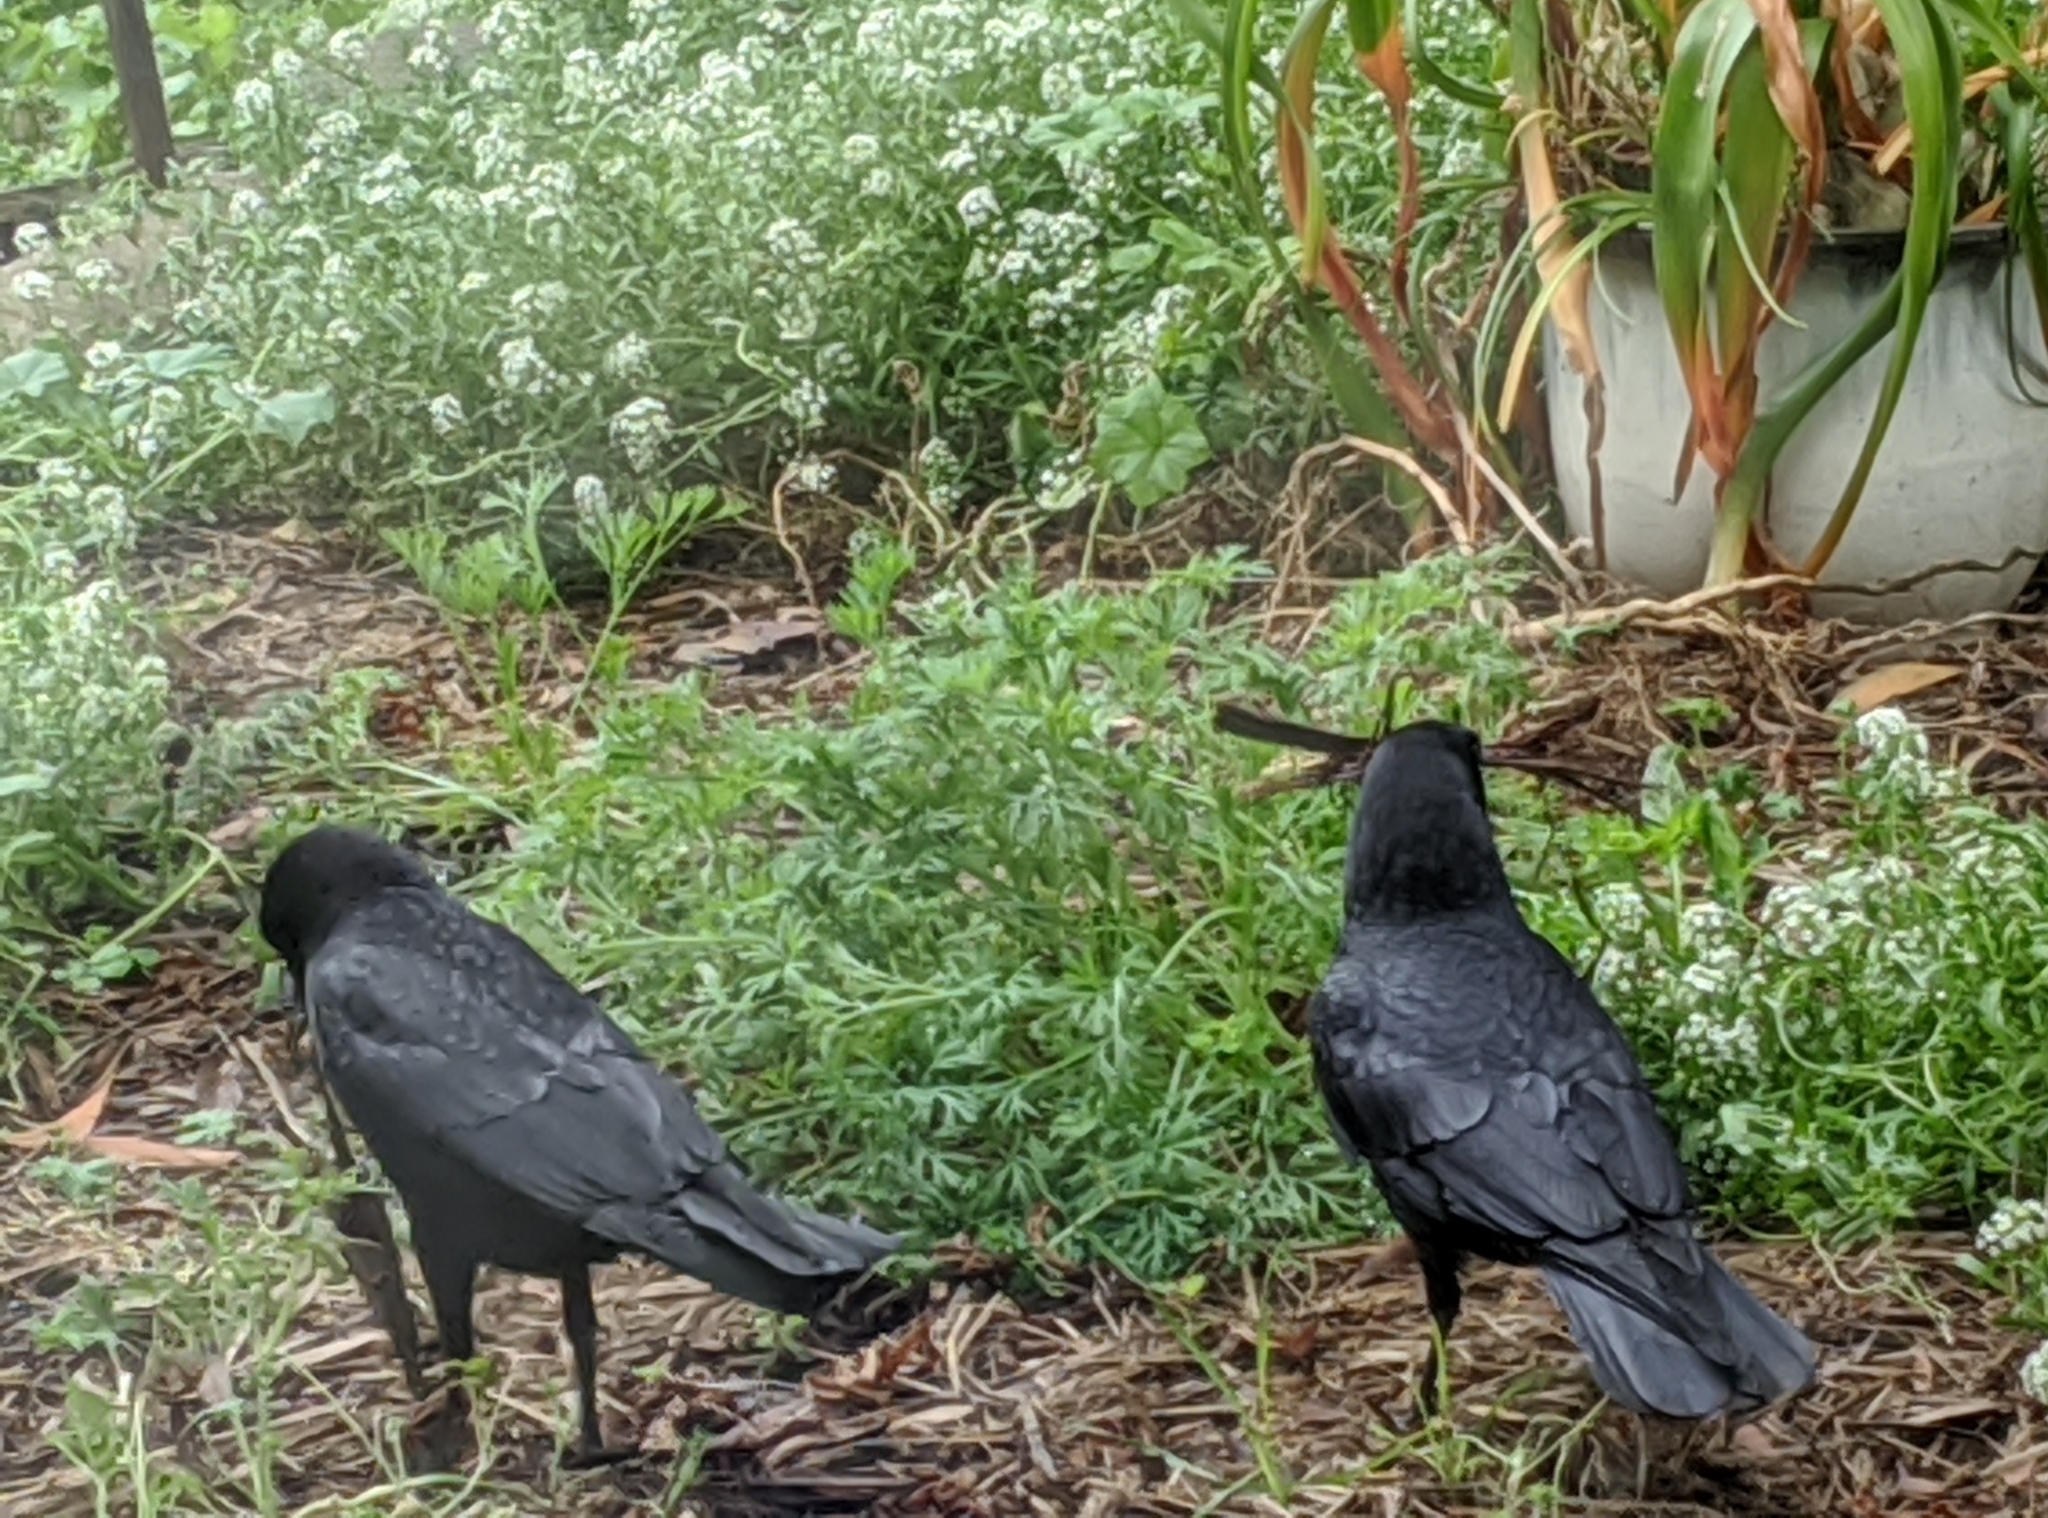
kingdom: Animalia
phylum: Chordata
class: Aves
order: Passeriformes
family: Corvidae
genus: Corvus
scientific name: Corvus brachyrhynchos
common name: American crow
